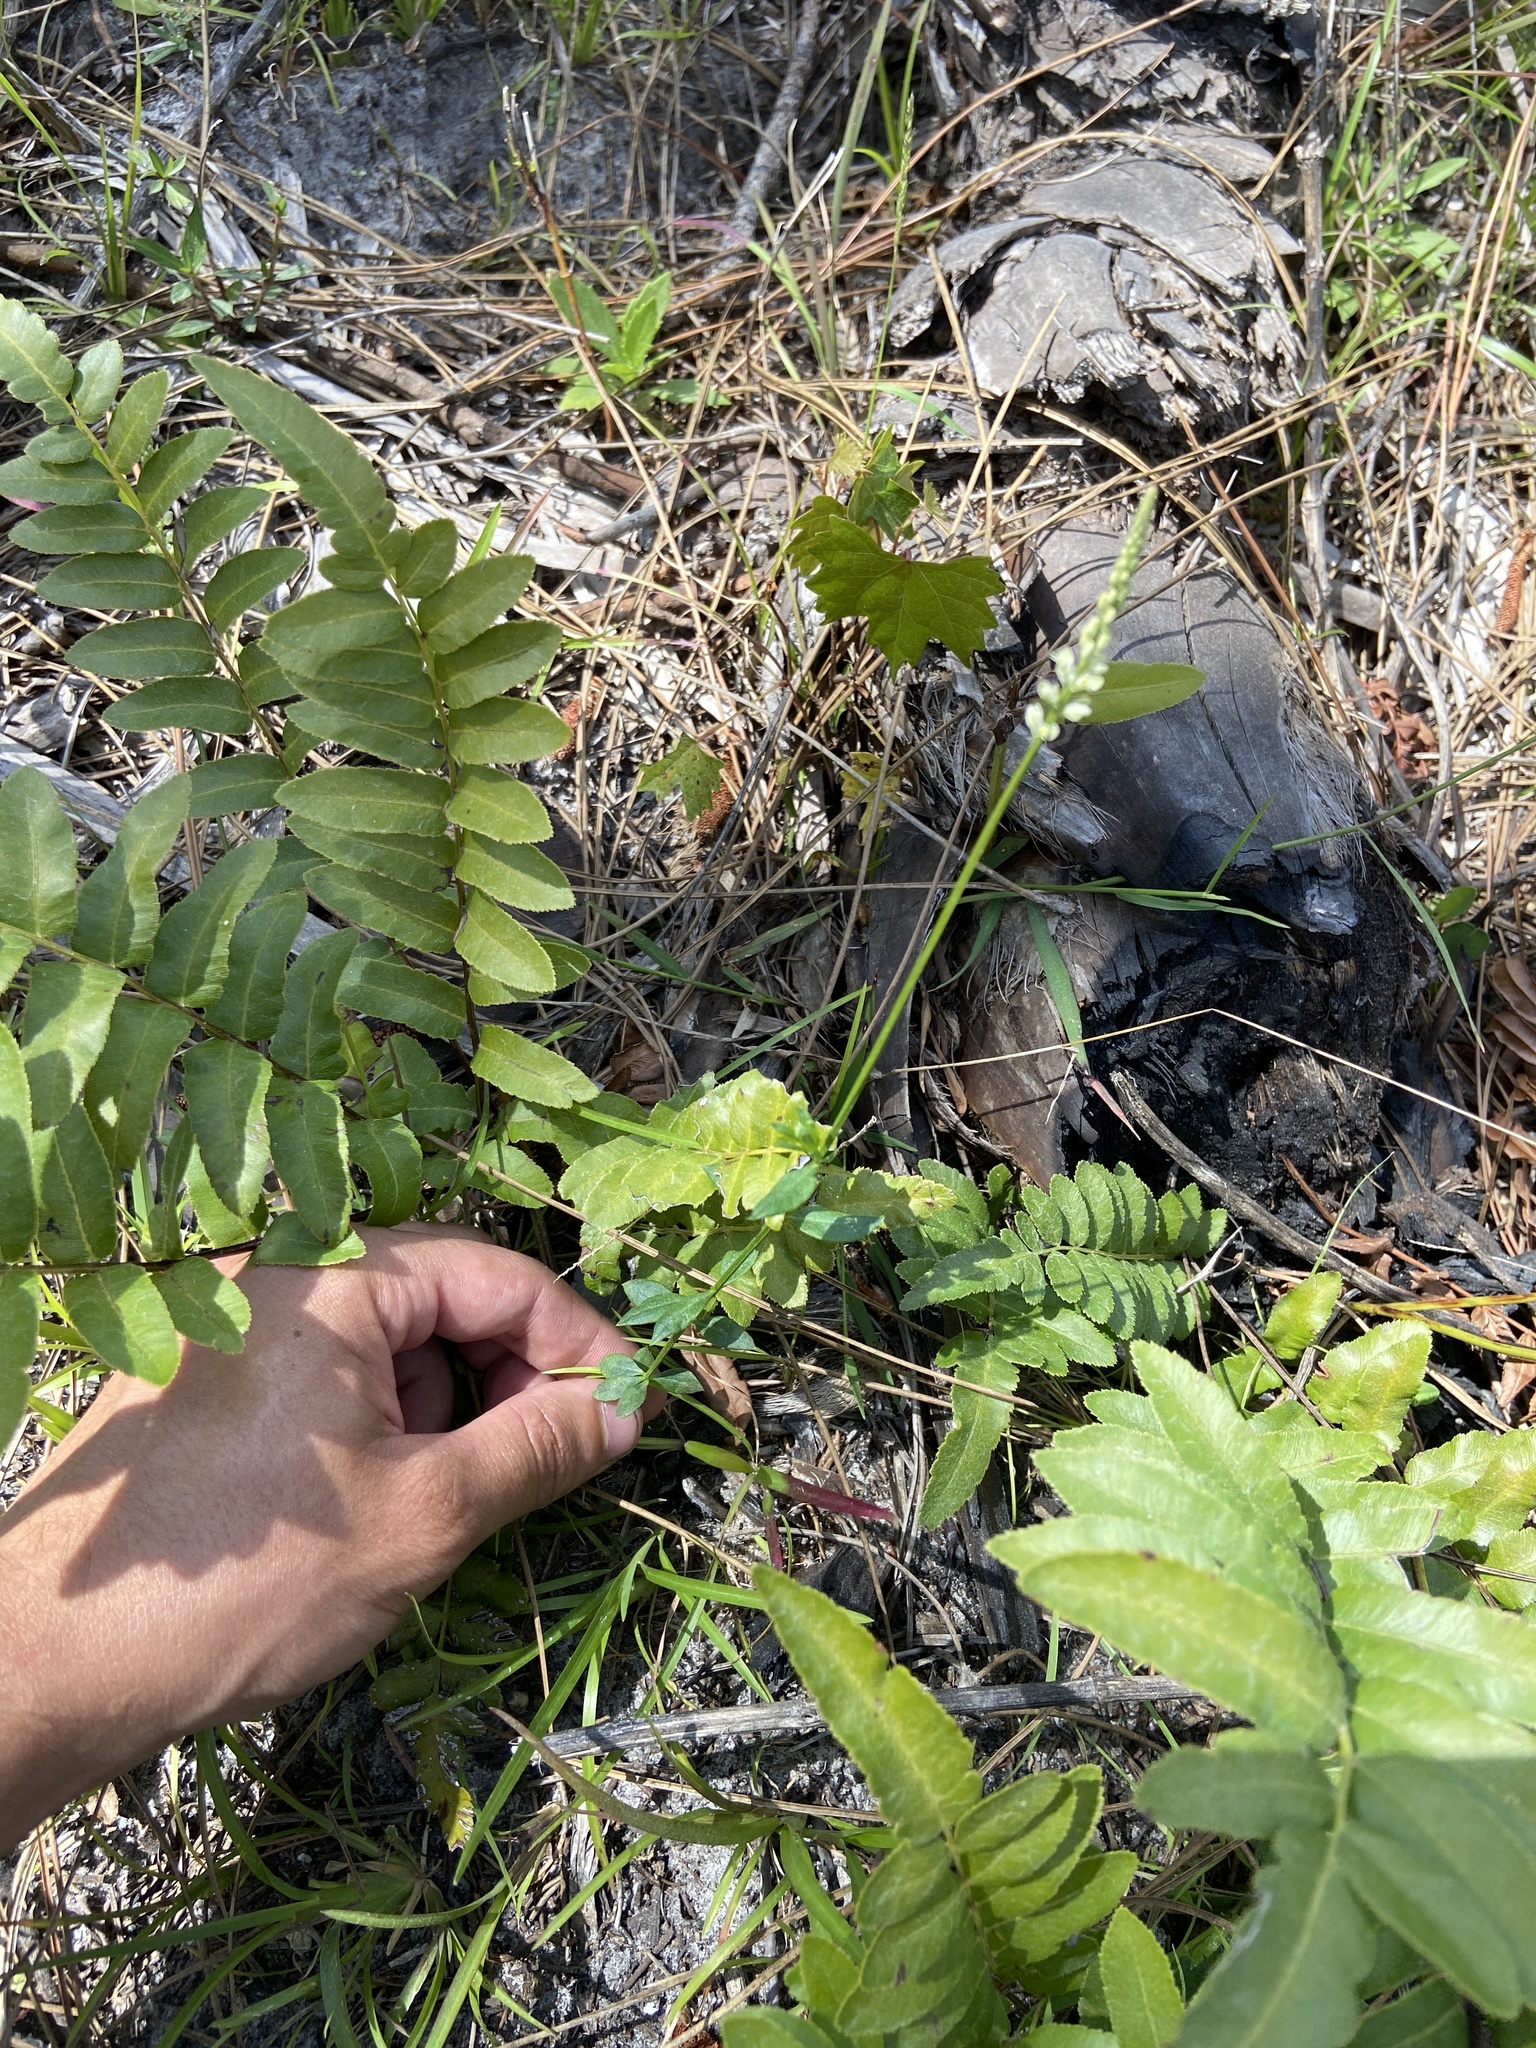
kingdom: Plantae
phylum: Tracheophyta
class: Magnoliopsida
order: Fabales
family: Polygalaceae
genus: Polygala
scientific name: Polygala boykinii
